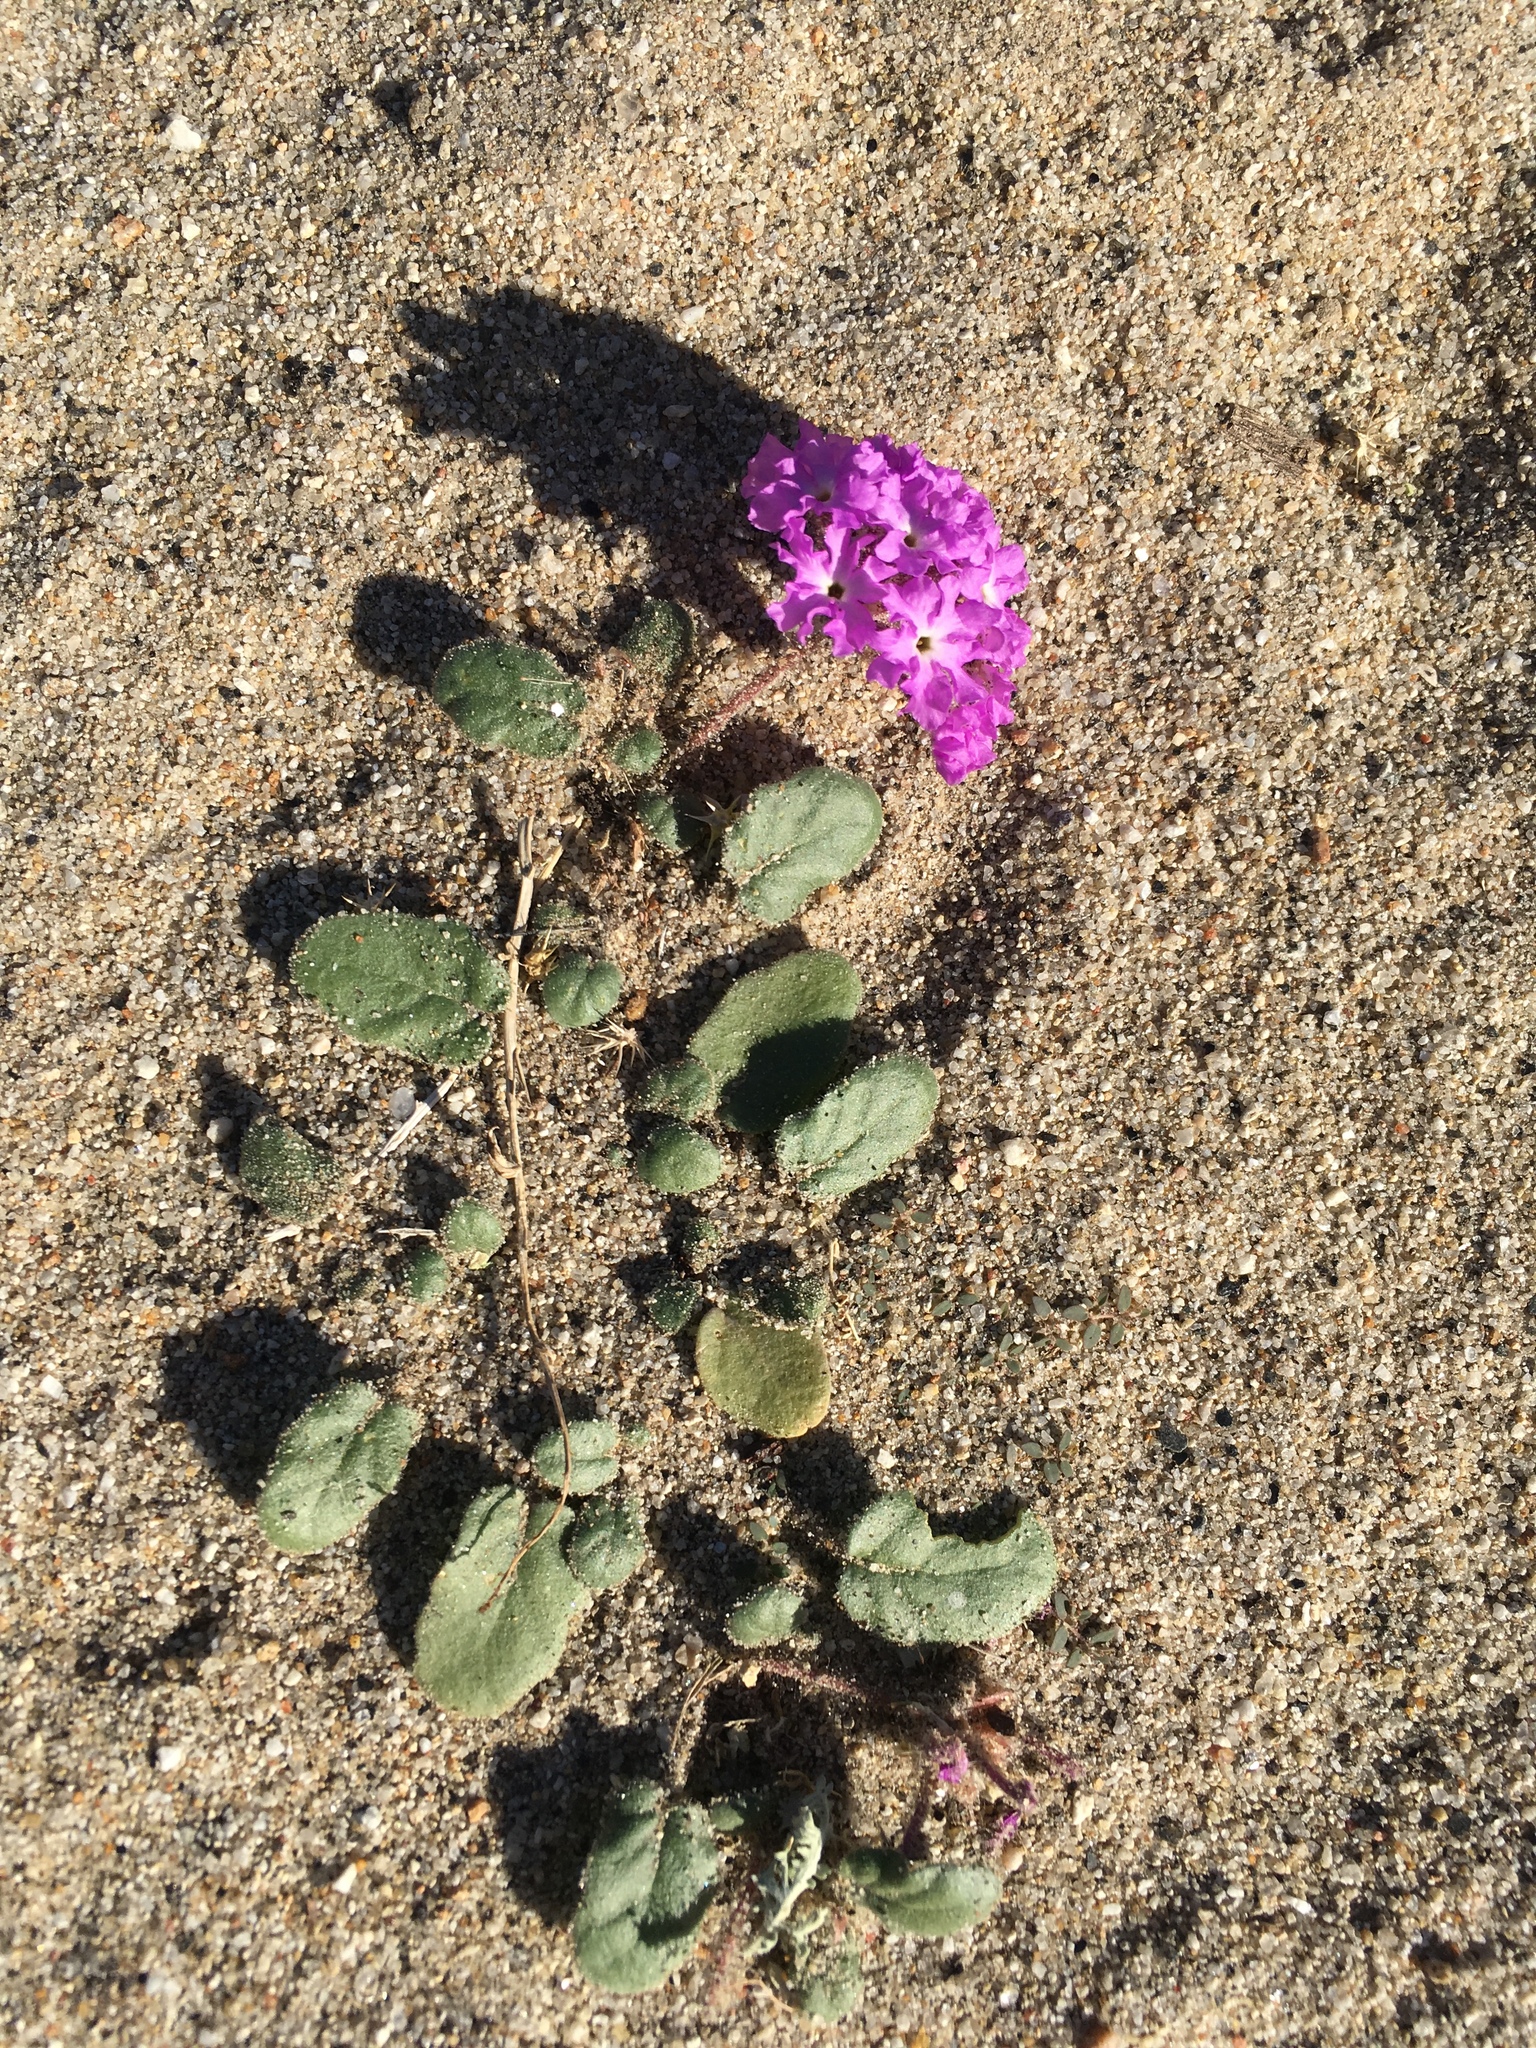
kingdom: Plantae
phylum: Tracheophyta
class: Magnoliopsida
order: Caryophyllales
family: Nyctaginaceae
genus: Abronia
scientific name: Abronia villosa
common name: Desert sand-verbena
